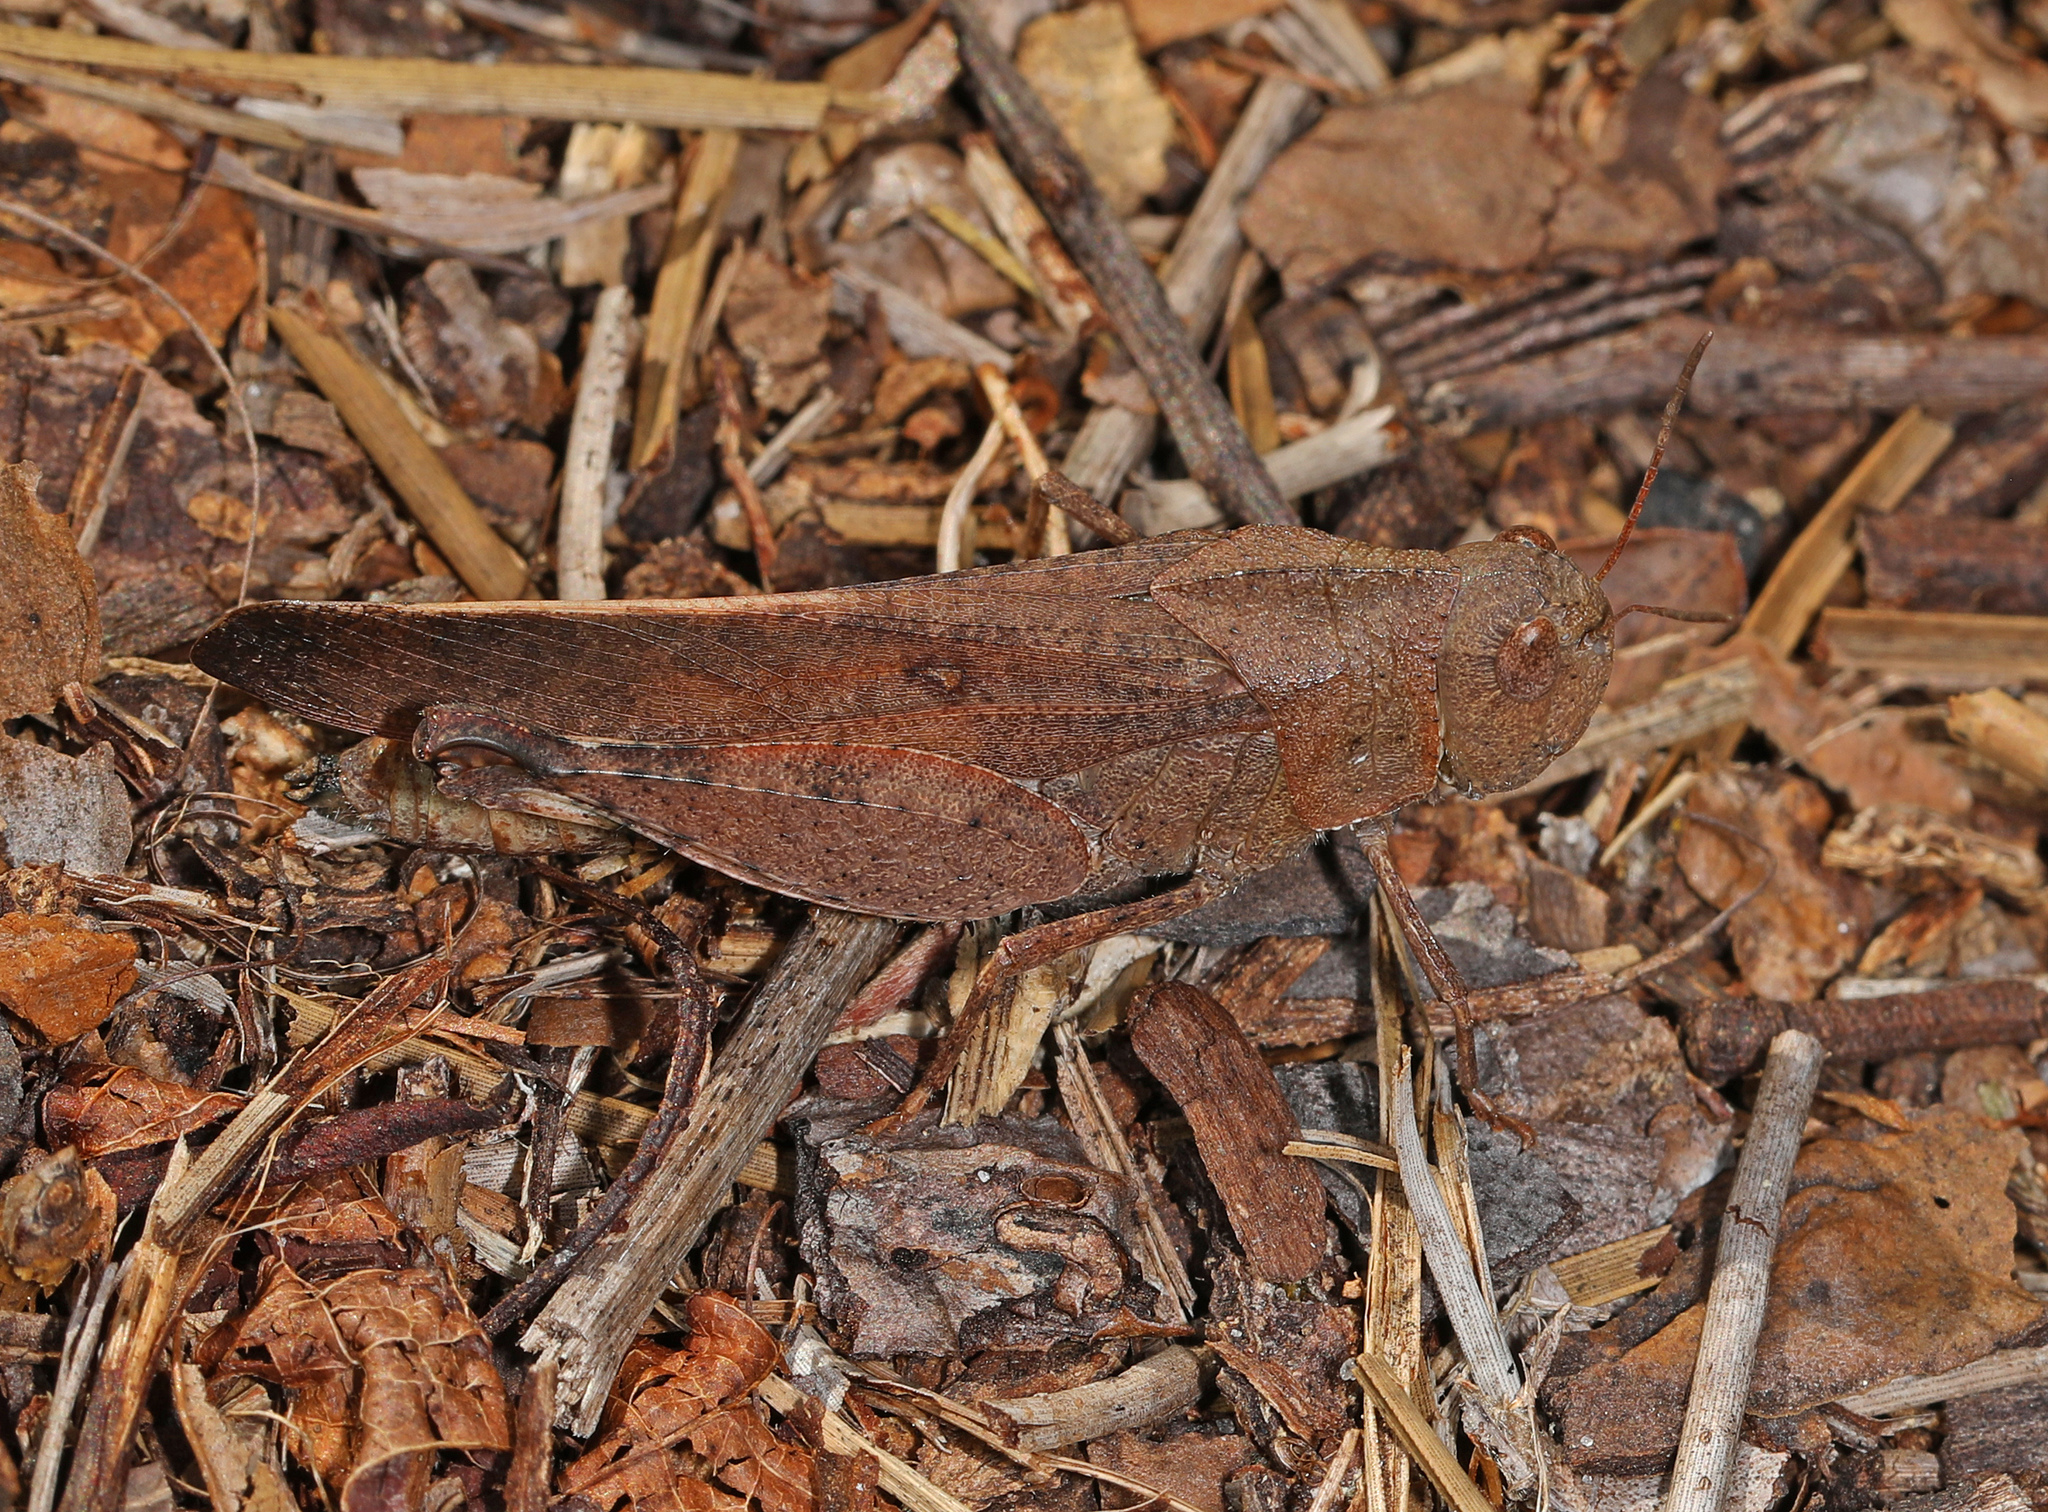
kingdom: Animalia
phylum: Arthropoda
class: Insecta
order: Orthoptera
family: Acrididae
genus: Arphia
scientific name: Arphia granulata
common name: Southern yellow-winged grasshopper
